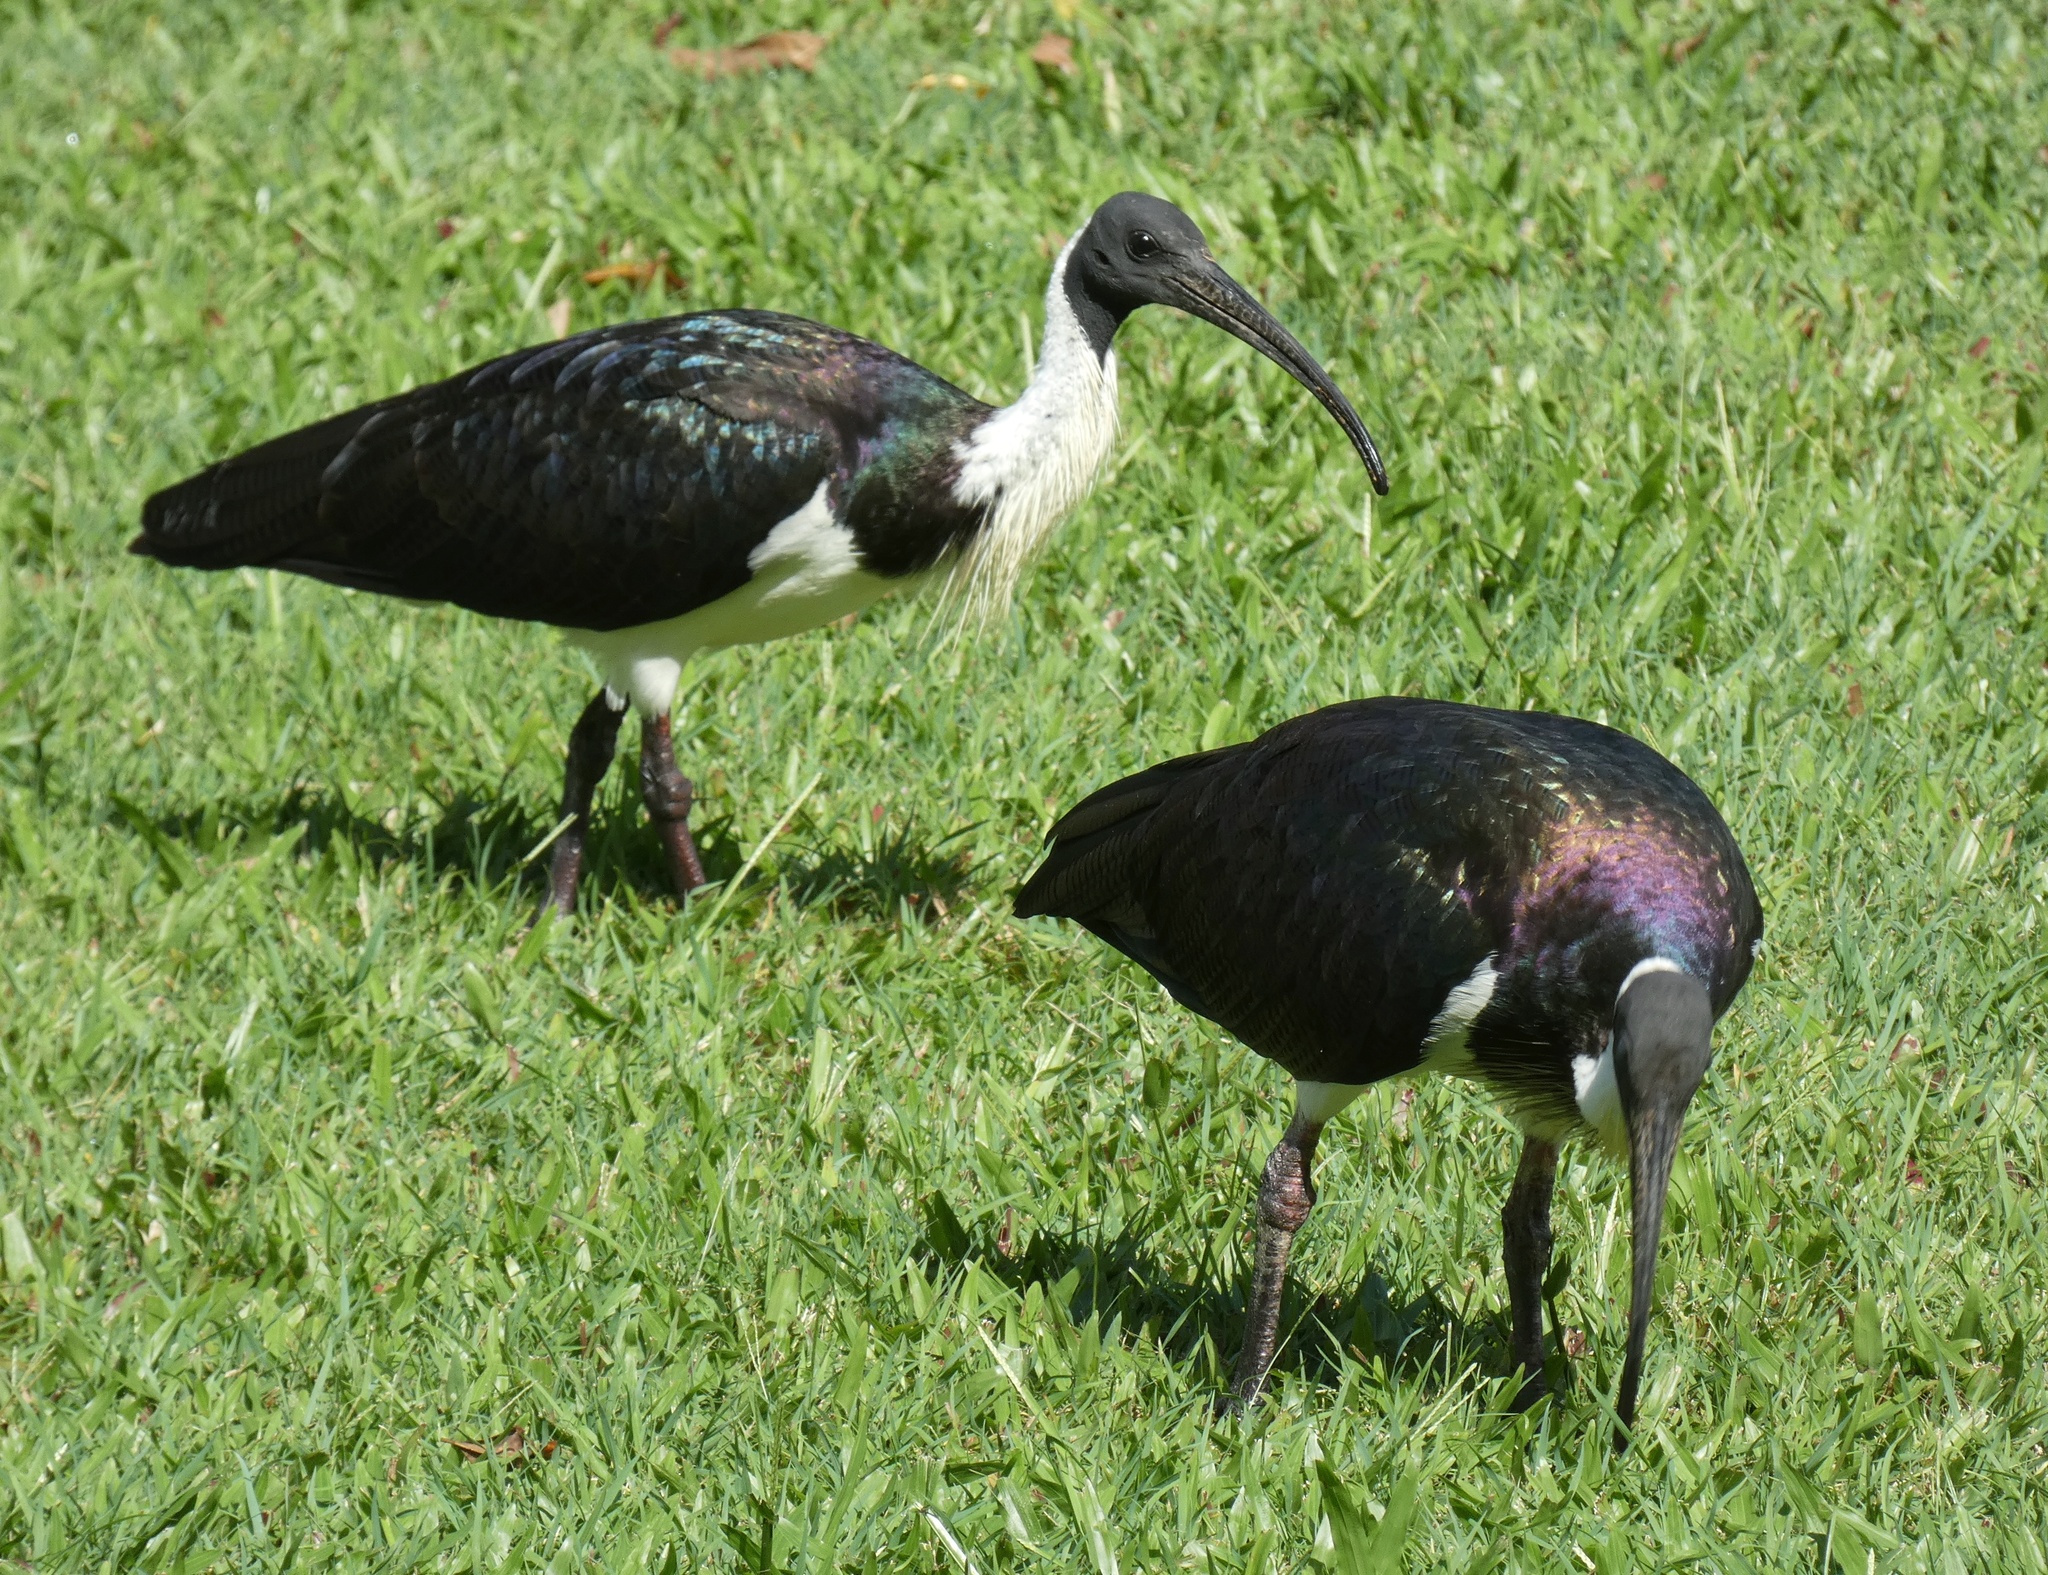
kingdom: Animalia
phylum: Chordata
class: Aves
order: Pelecaniformes
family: Threskiornithidae
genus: Threskiornis
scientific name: Threskiornis spinicollis
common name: Straw-necked ibis
